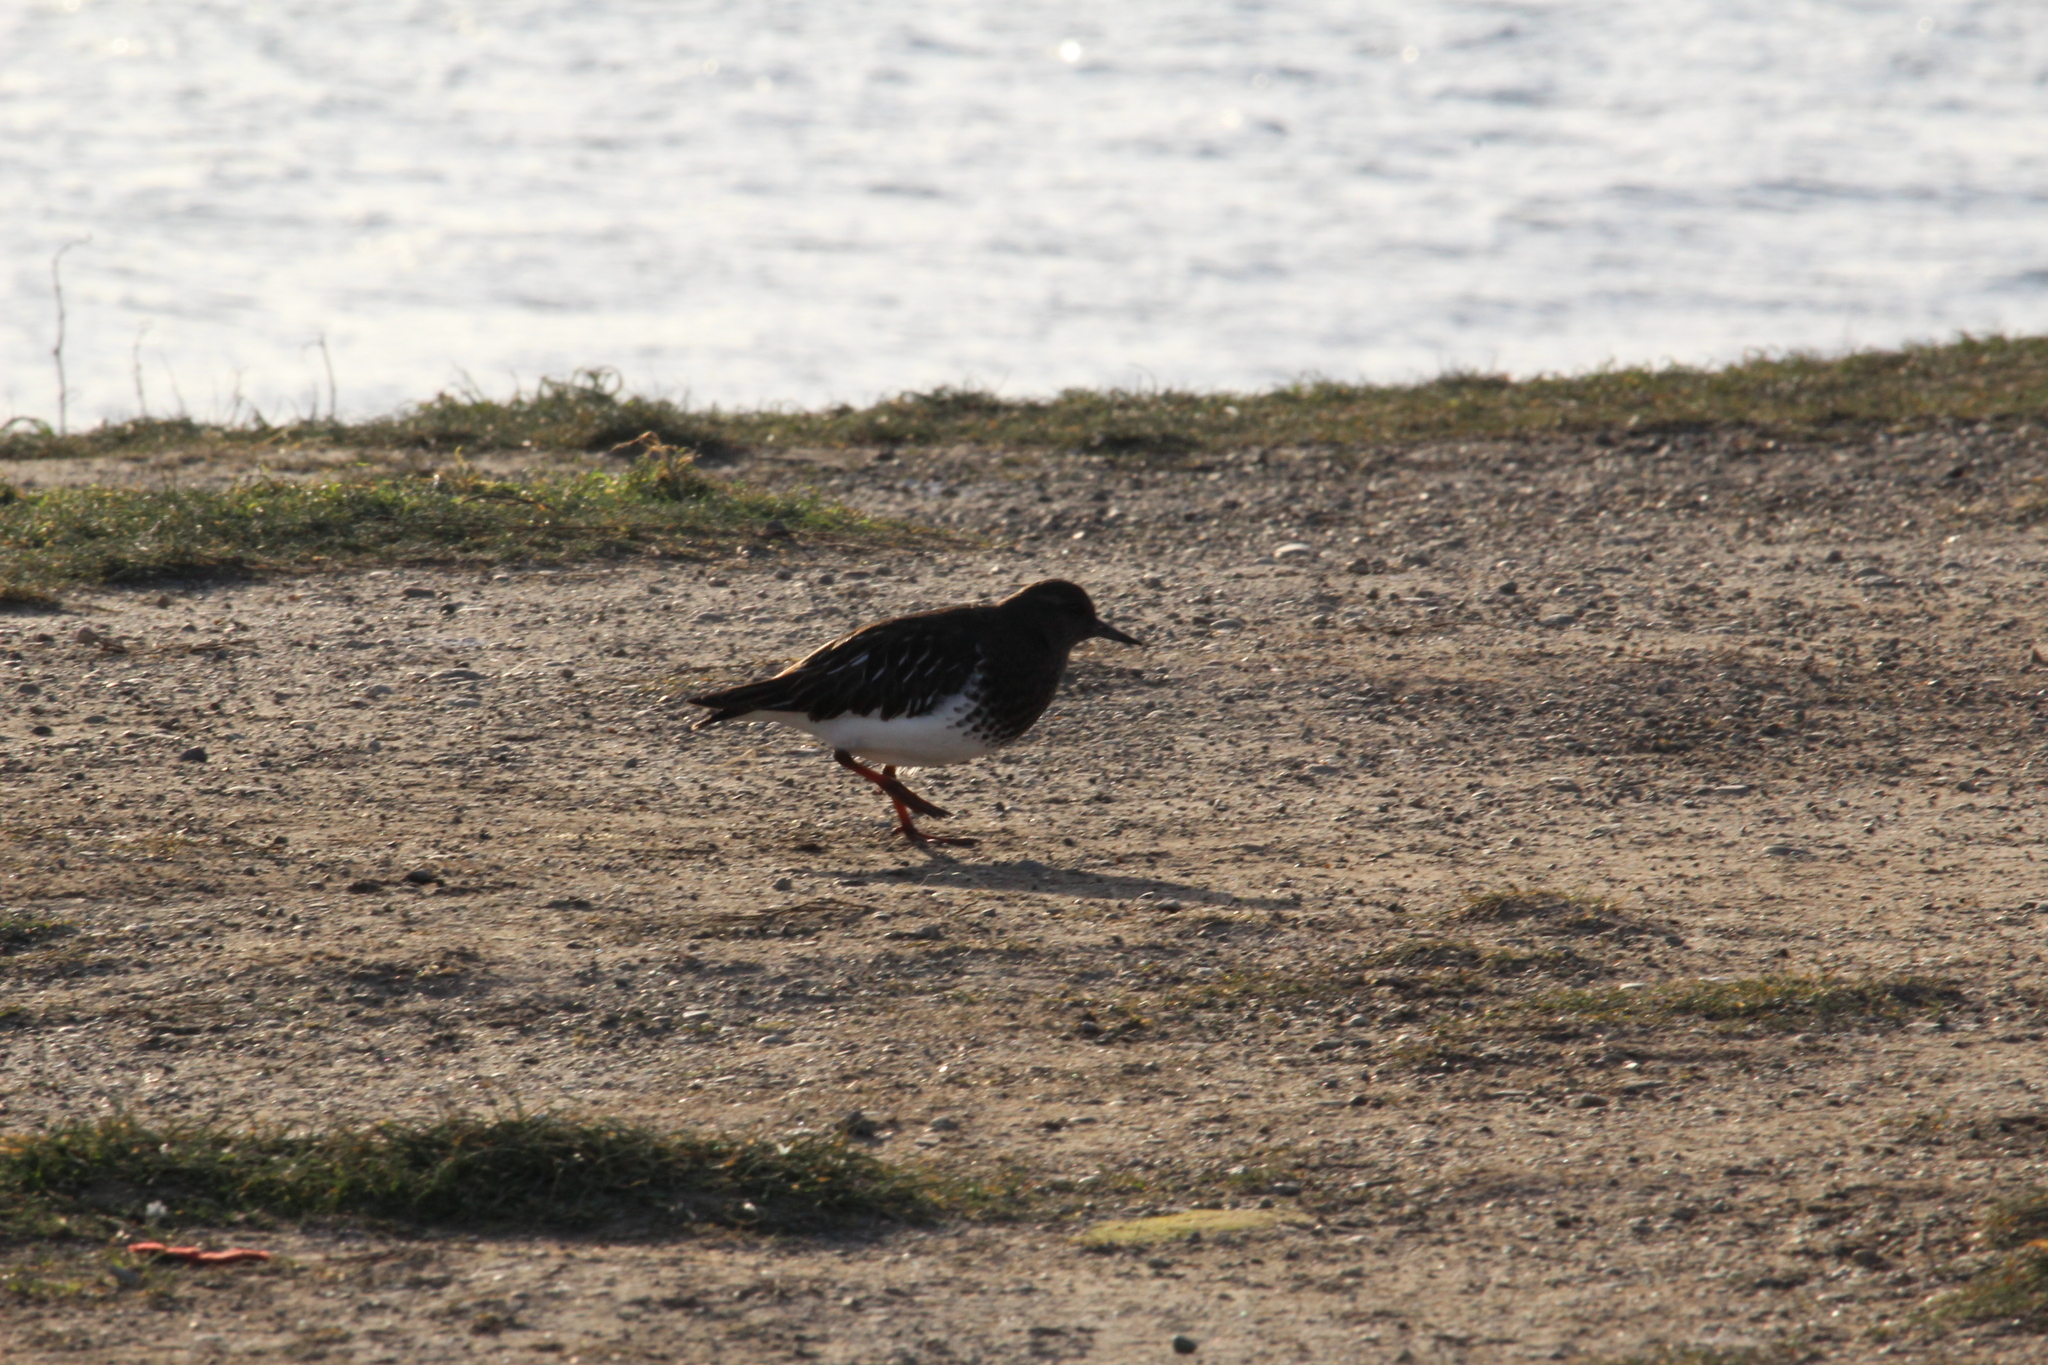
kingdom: Animalia
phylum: Chordata
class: Aves
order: Charadriiformes
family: Scolopacidae
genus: Arenaria
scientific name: Arenaria melanocephala
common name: Black turnstone
